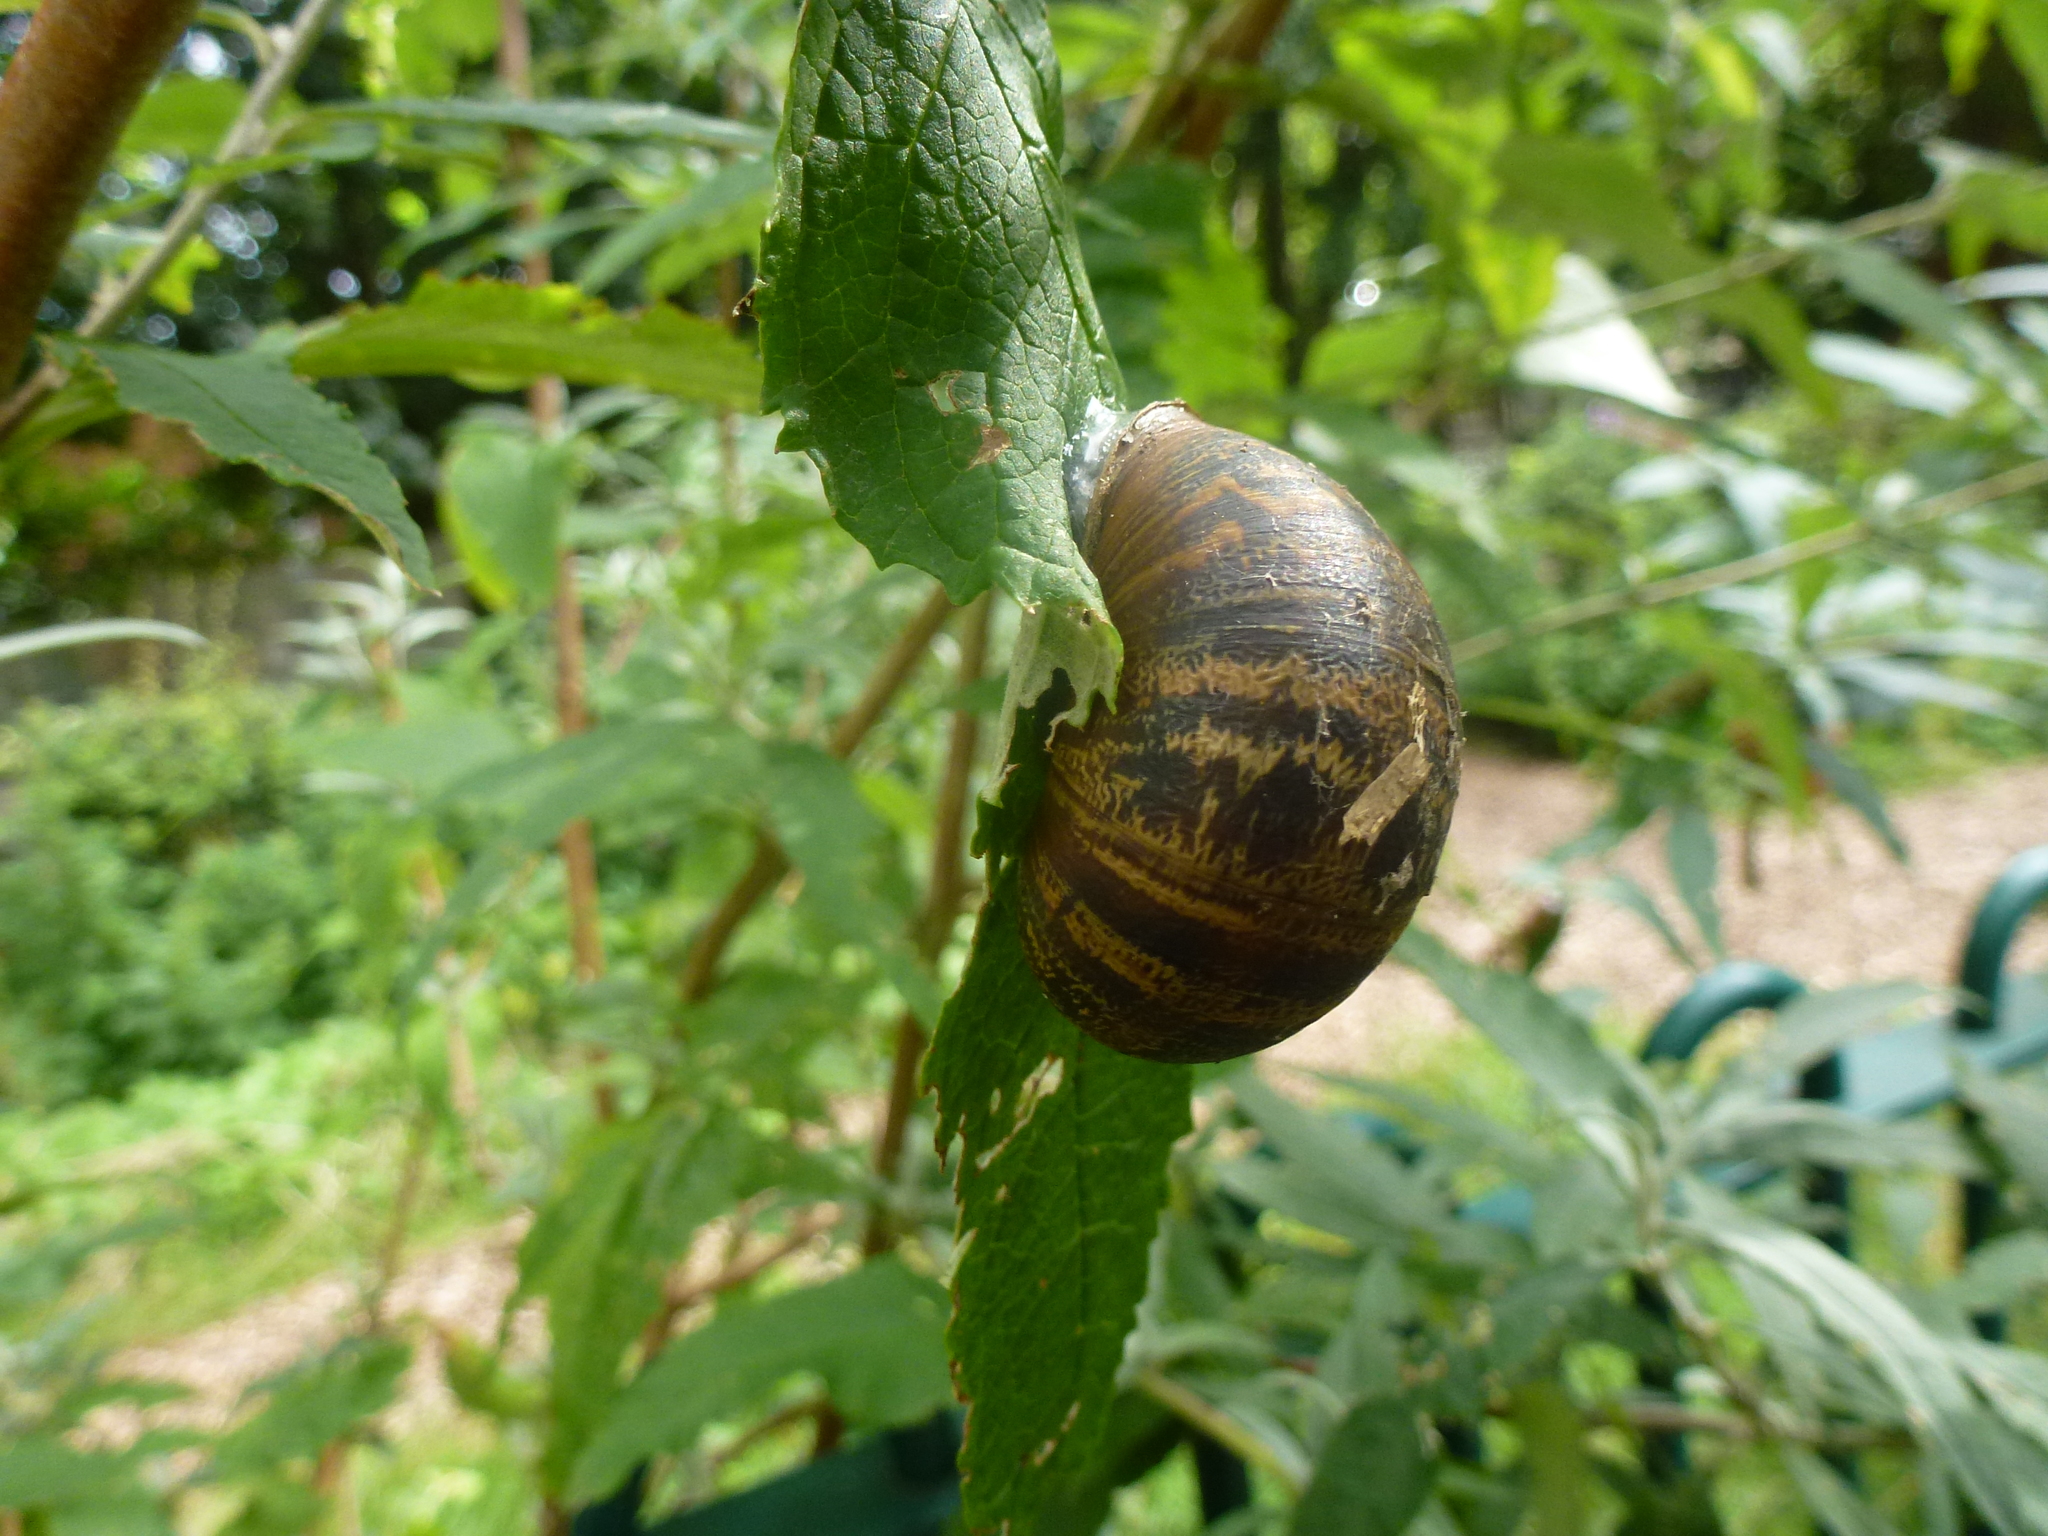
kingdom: Animalia
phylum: Mollusca
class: Gastropoda
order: Stylommatophora
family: Helicidae
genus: Cornu
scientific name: Cornu aspersum
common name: Brown garden snail
